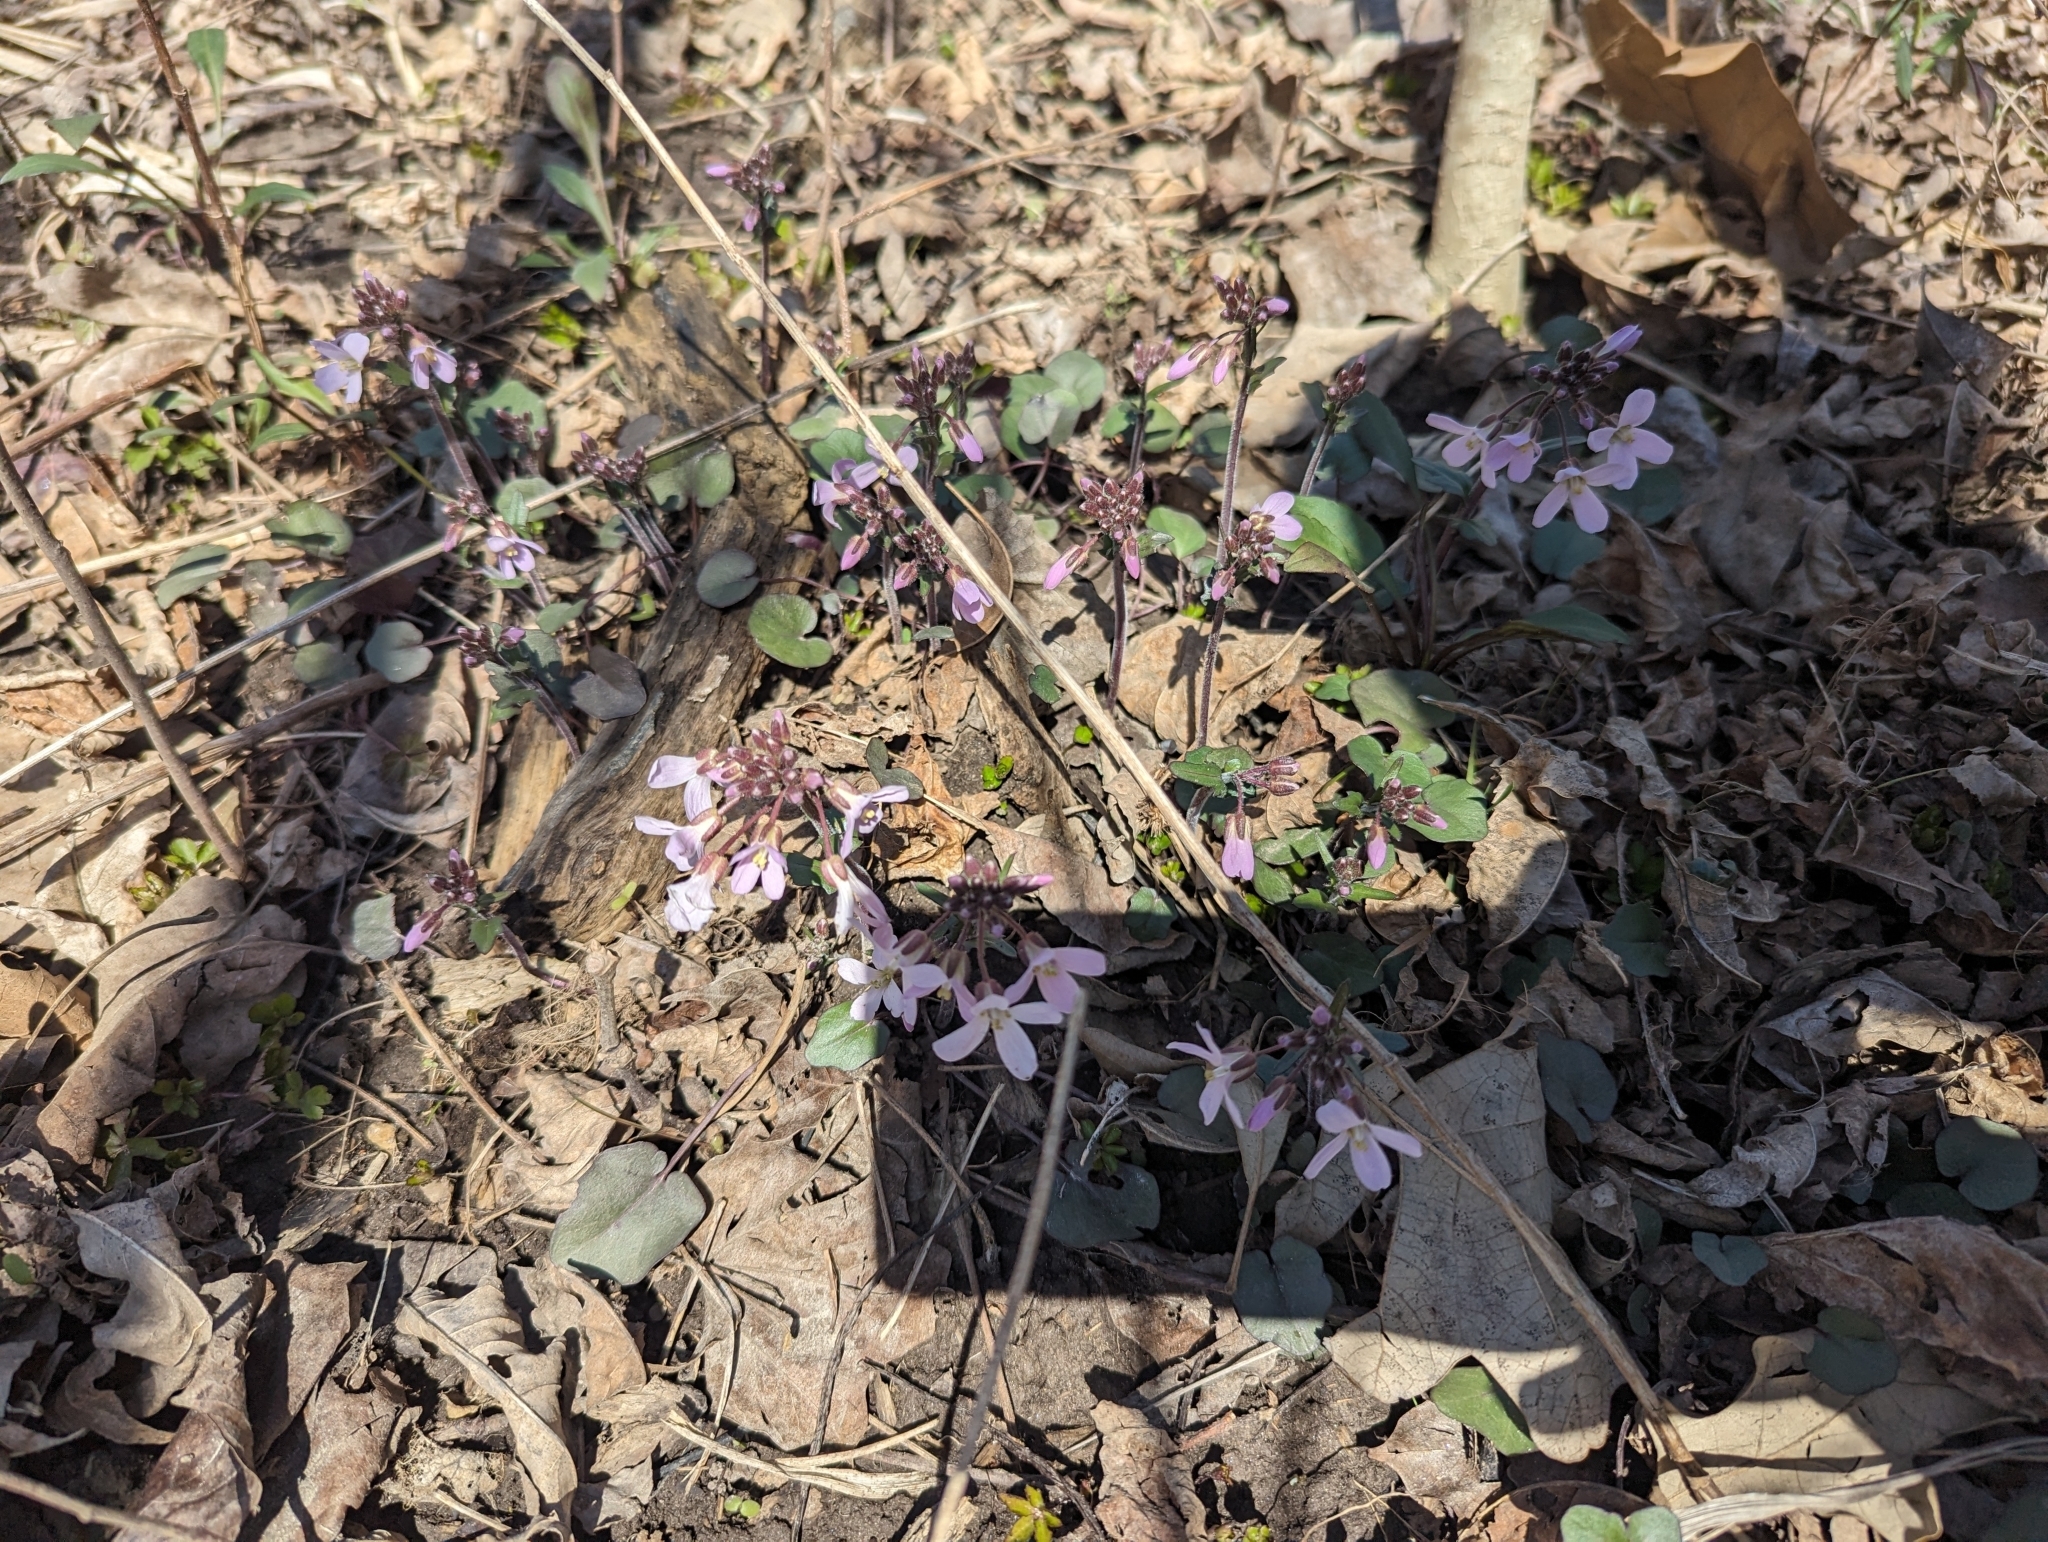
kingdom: Plantae
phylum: Tracheophyta
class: Magnoliopsida
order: Brassicales
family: Brassicaceae
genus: Cardamine
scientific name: Cardamine douglassii
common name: Purple cress
